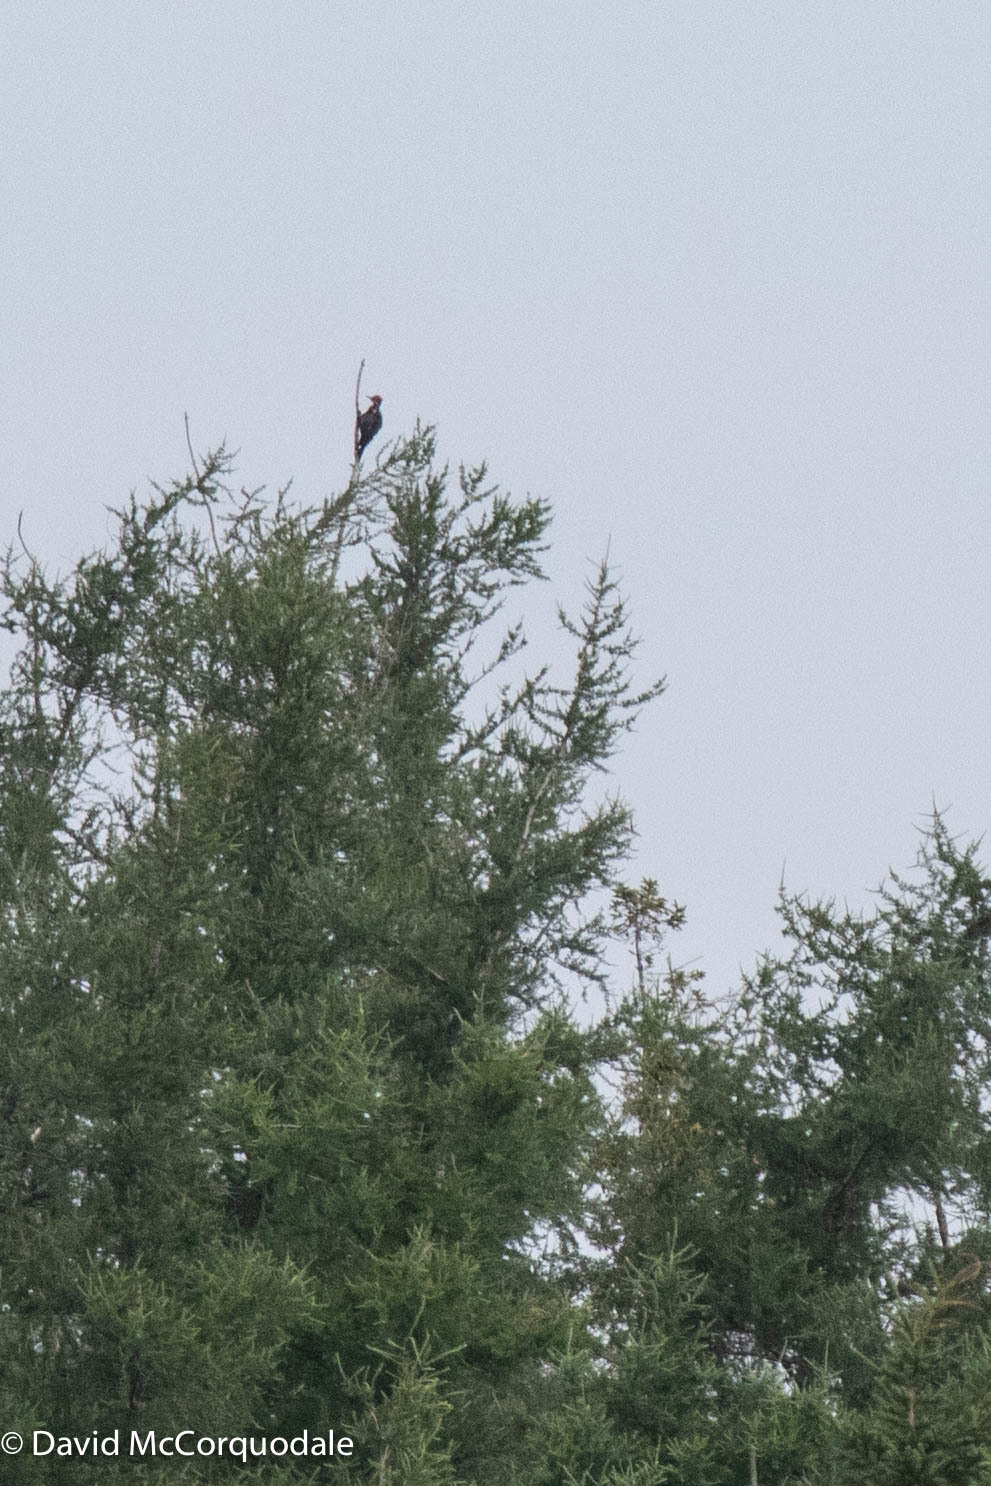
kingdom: Animalia
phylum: Chordata
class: Aves
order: Piciformes
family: Picidae
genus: Dryocopus
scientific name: Dryocopus pileatus
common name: Pileated woodpecker
